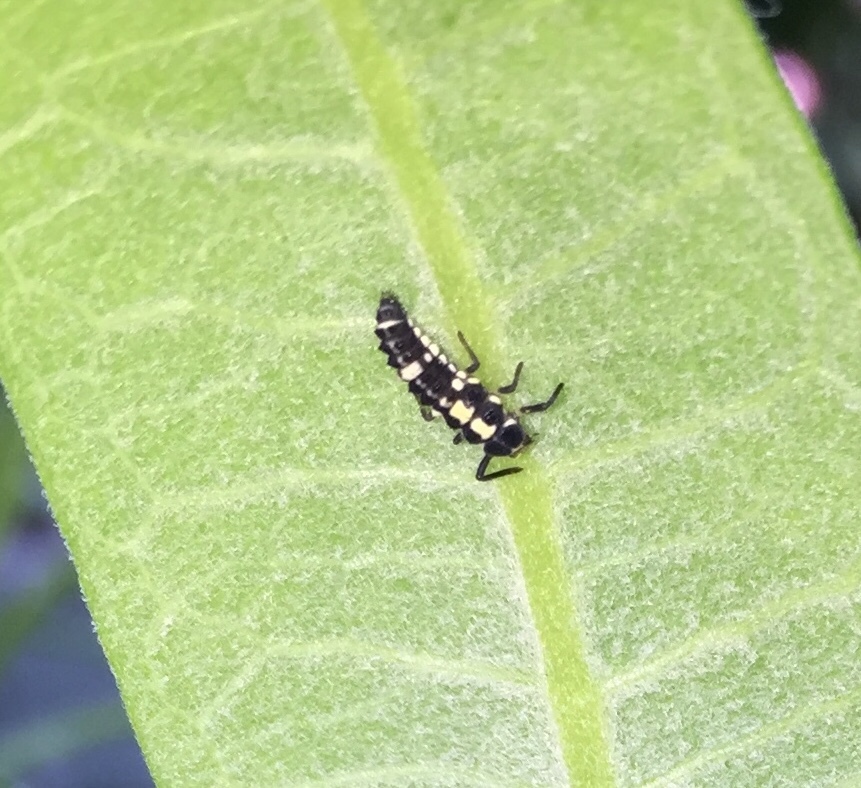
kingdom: Animalia
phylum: Arthropoda
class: Insecta
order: Coleoptera
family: Coccinellidae
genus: Propylaea
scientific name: Propylaea quatuordecimpunctata
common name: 14-spotted ladybird beetle
